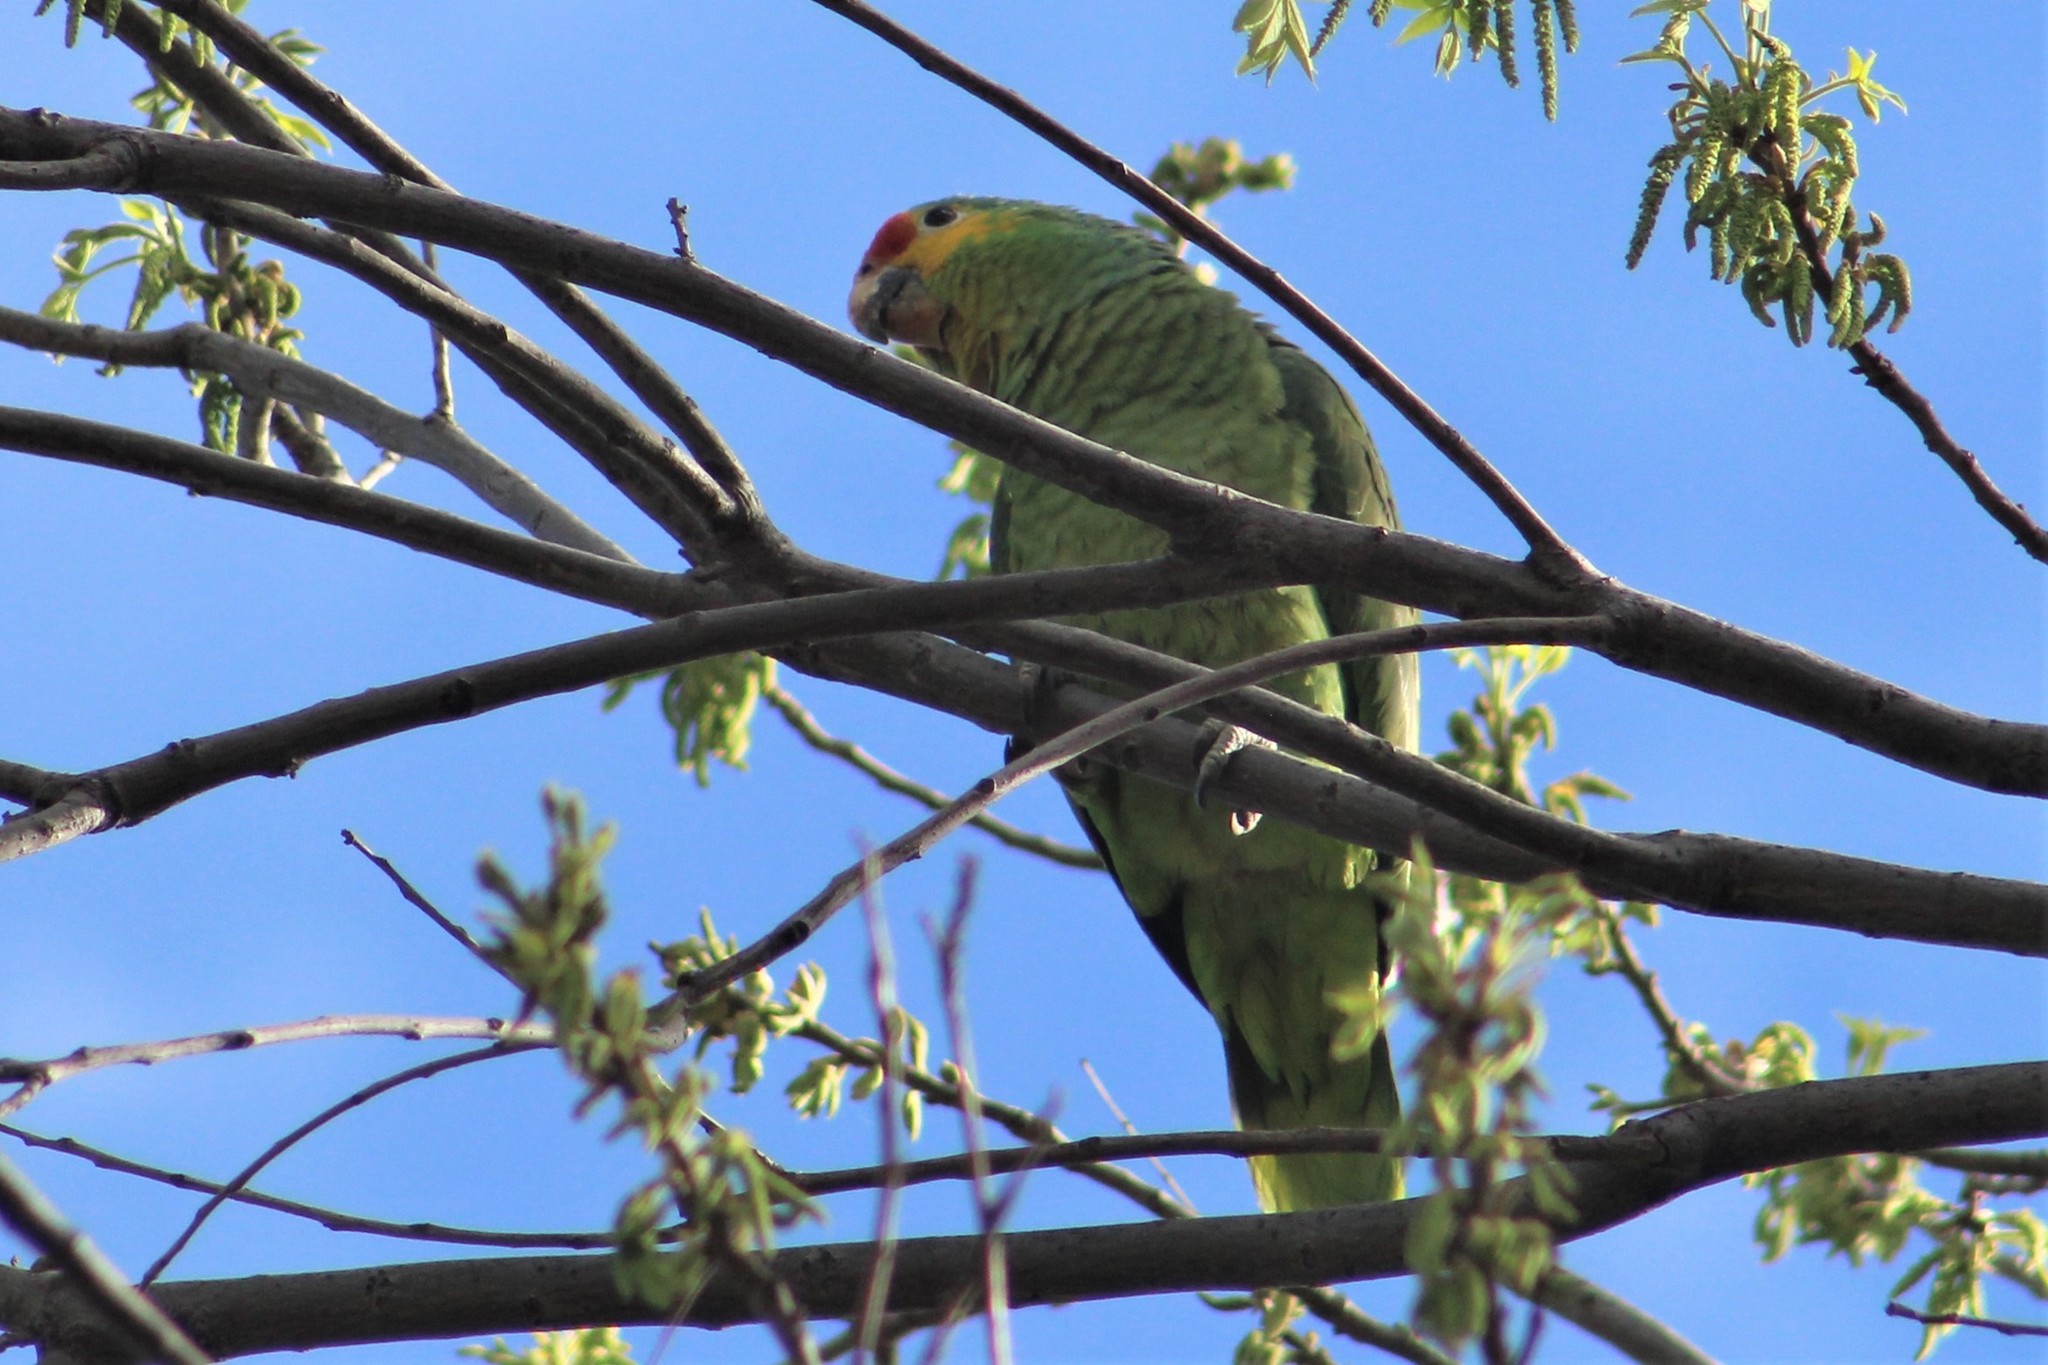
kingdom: Animalia
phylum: Chordata
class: Aves
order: Psittaciformes
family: Psittacidae
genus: Amazona
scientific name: Amazona autumnalis
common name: Red-lored amazon
